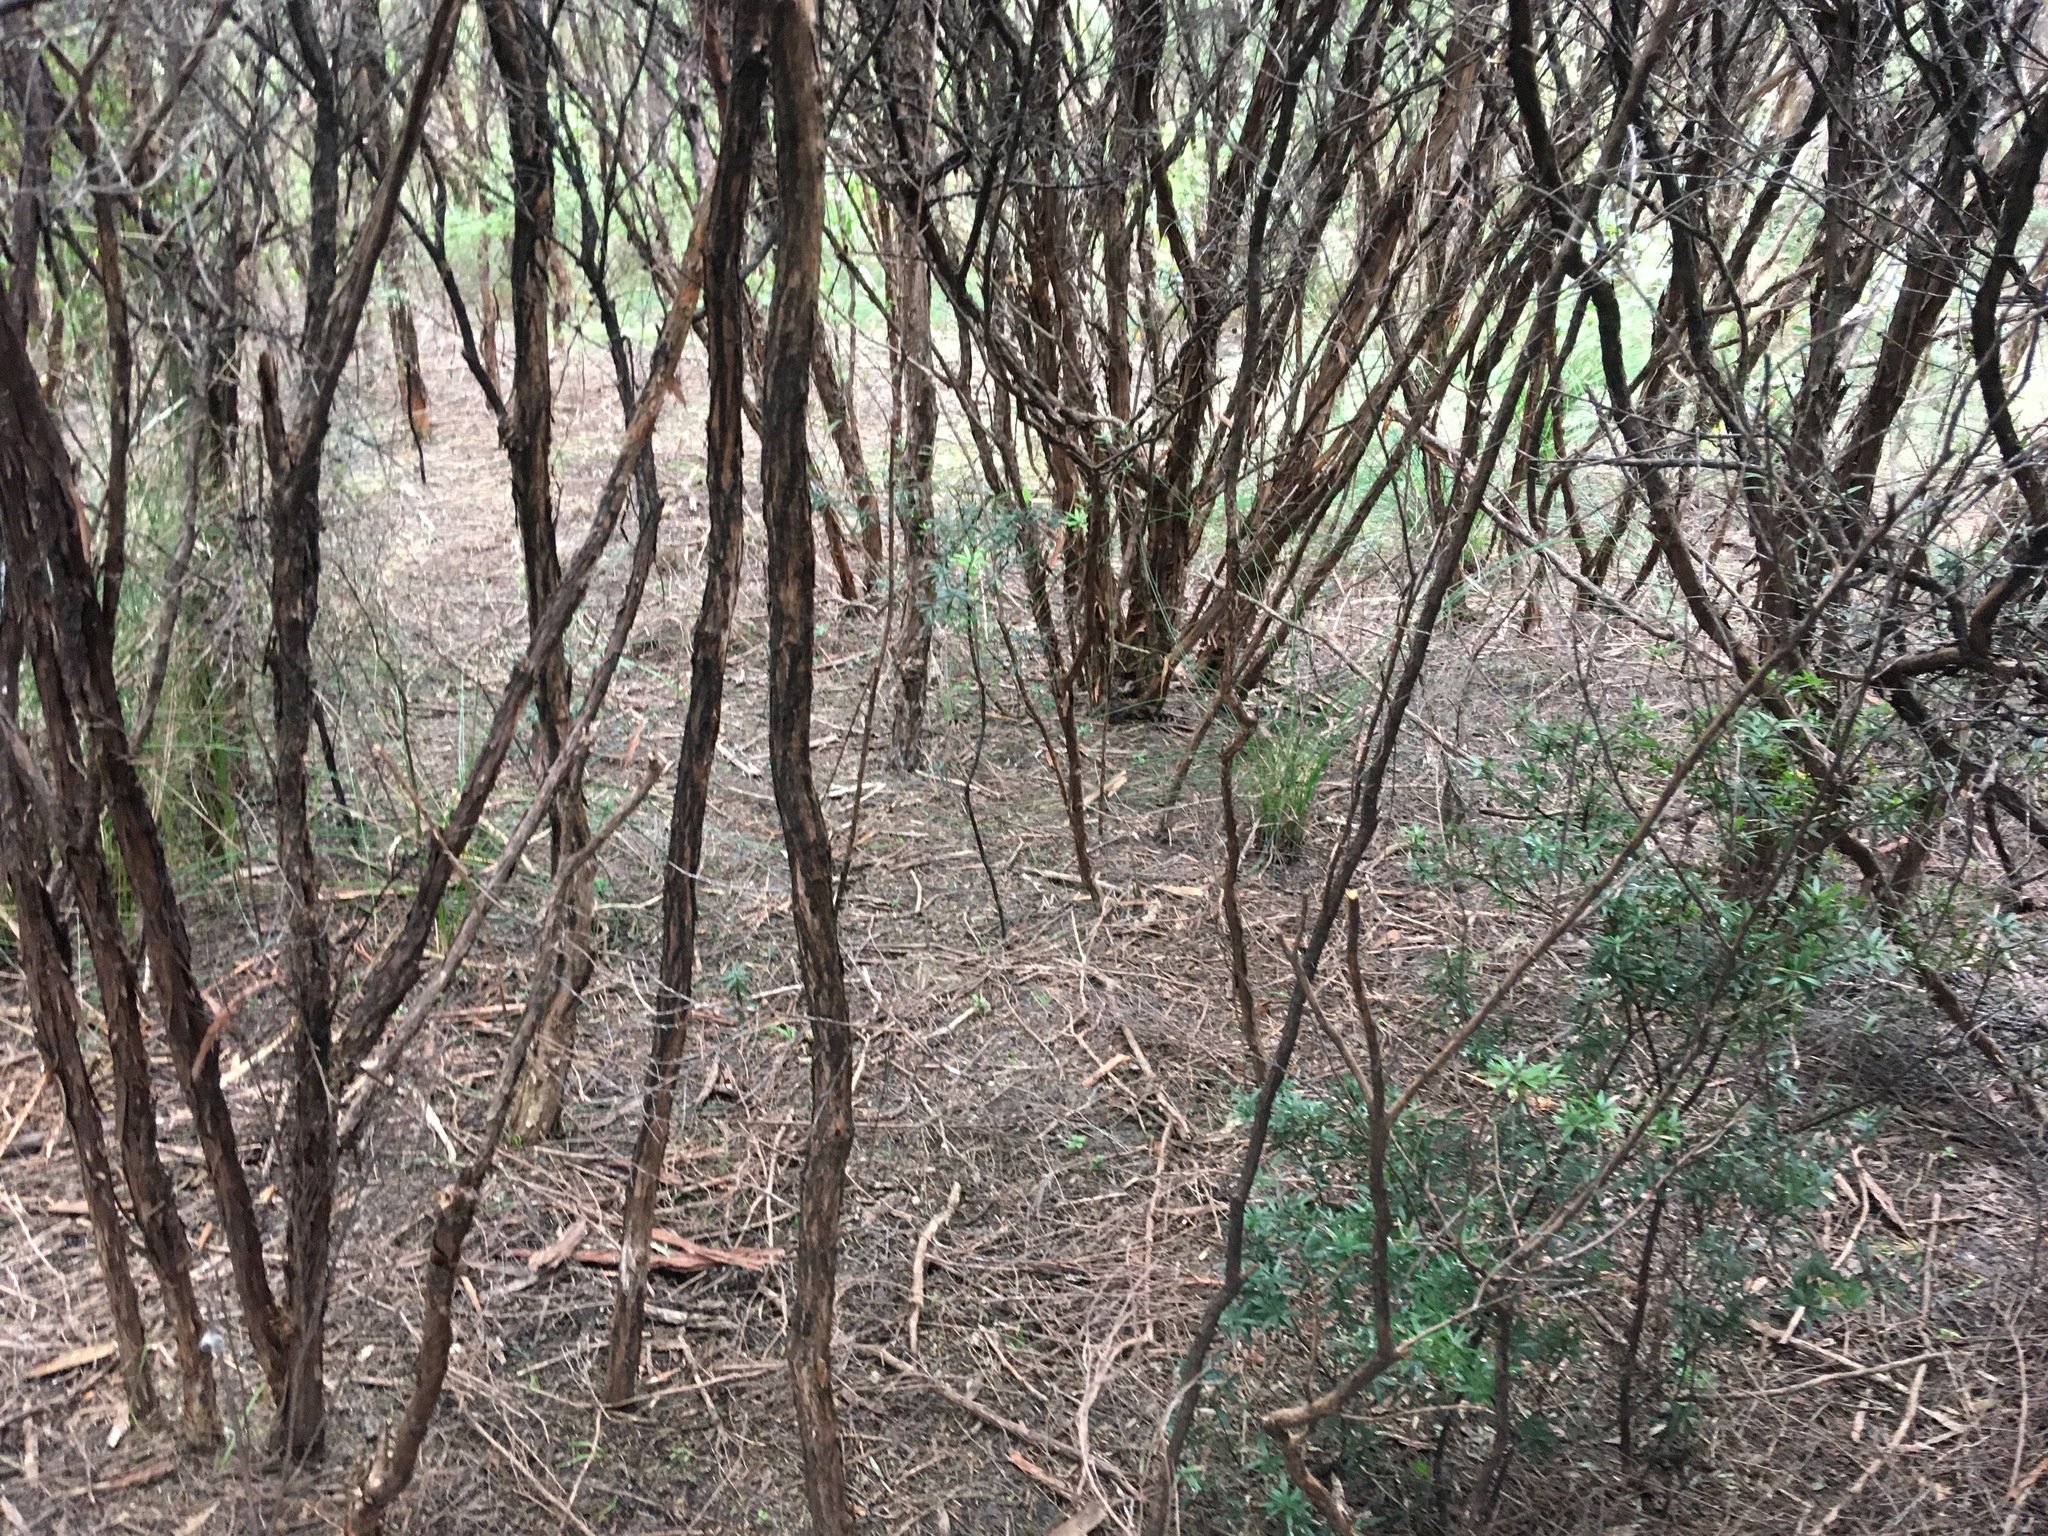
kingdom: Plantae
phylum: Tracheophyta
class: Magnoliopsida
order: Myrtales
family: Myrtaceae
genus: Leptospermum
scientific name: Leptospermum scoparium
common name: Broom tea-tree
